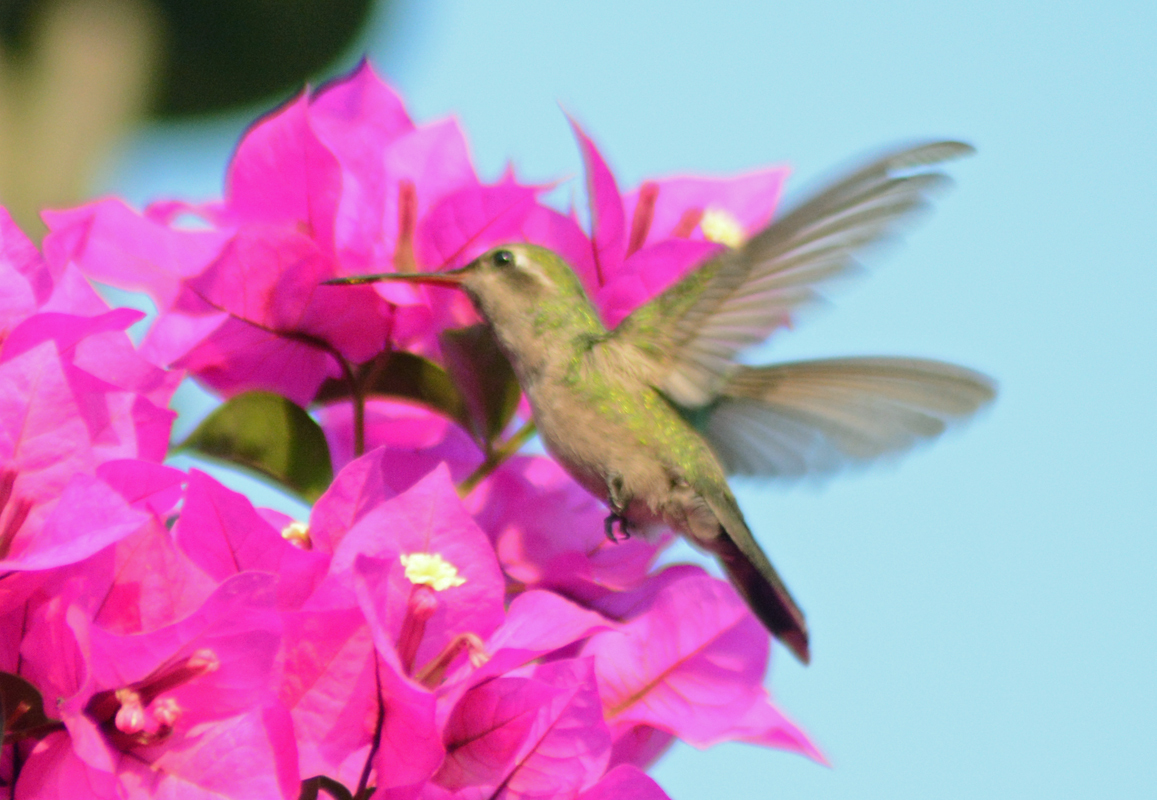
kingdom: Animalia
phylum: Chordata
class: Aves
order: Apodiformes
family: Trochilidae
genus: Cynanthus
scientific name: Cynanthus latirostris
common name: Broad-billed hummingbird
